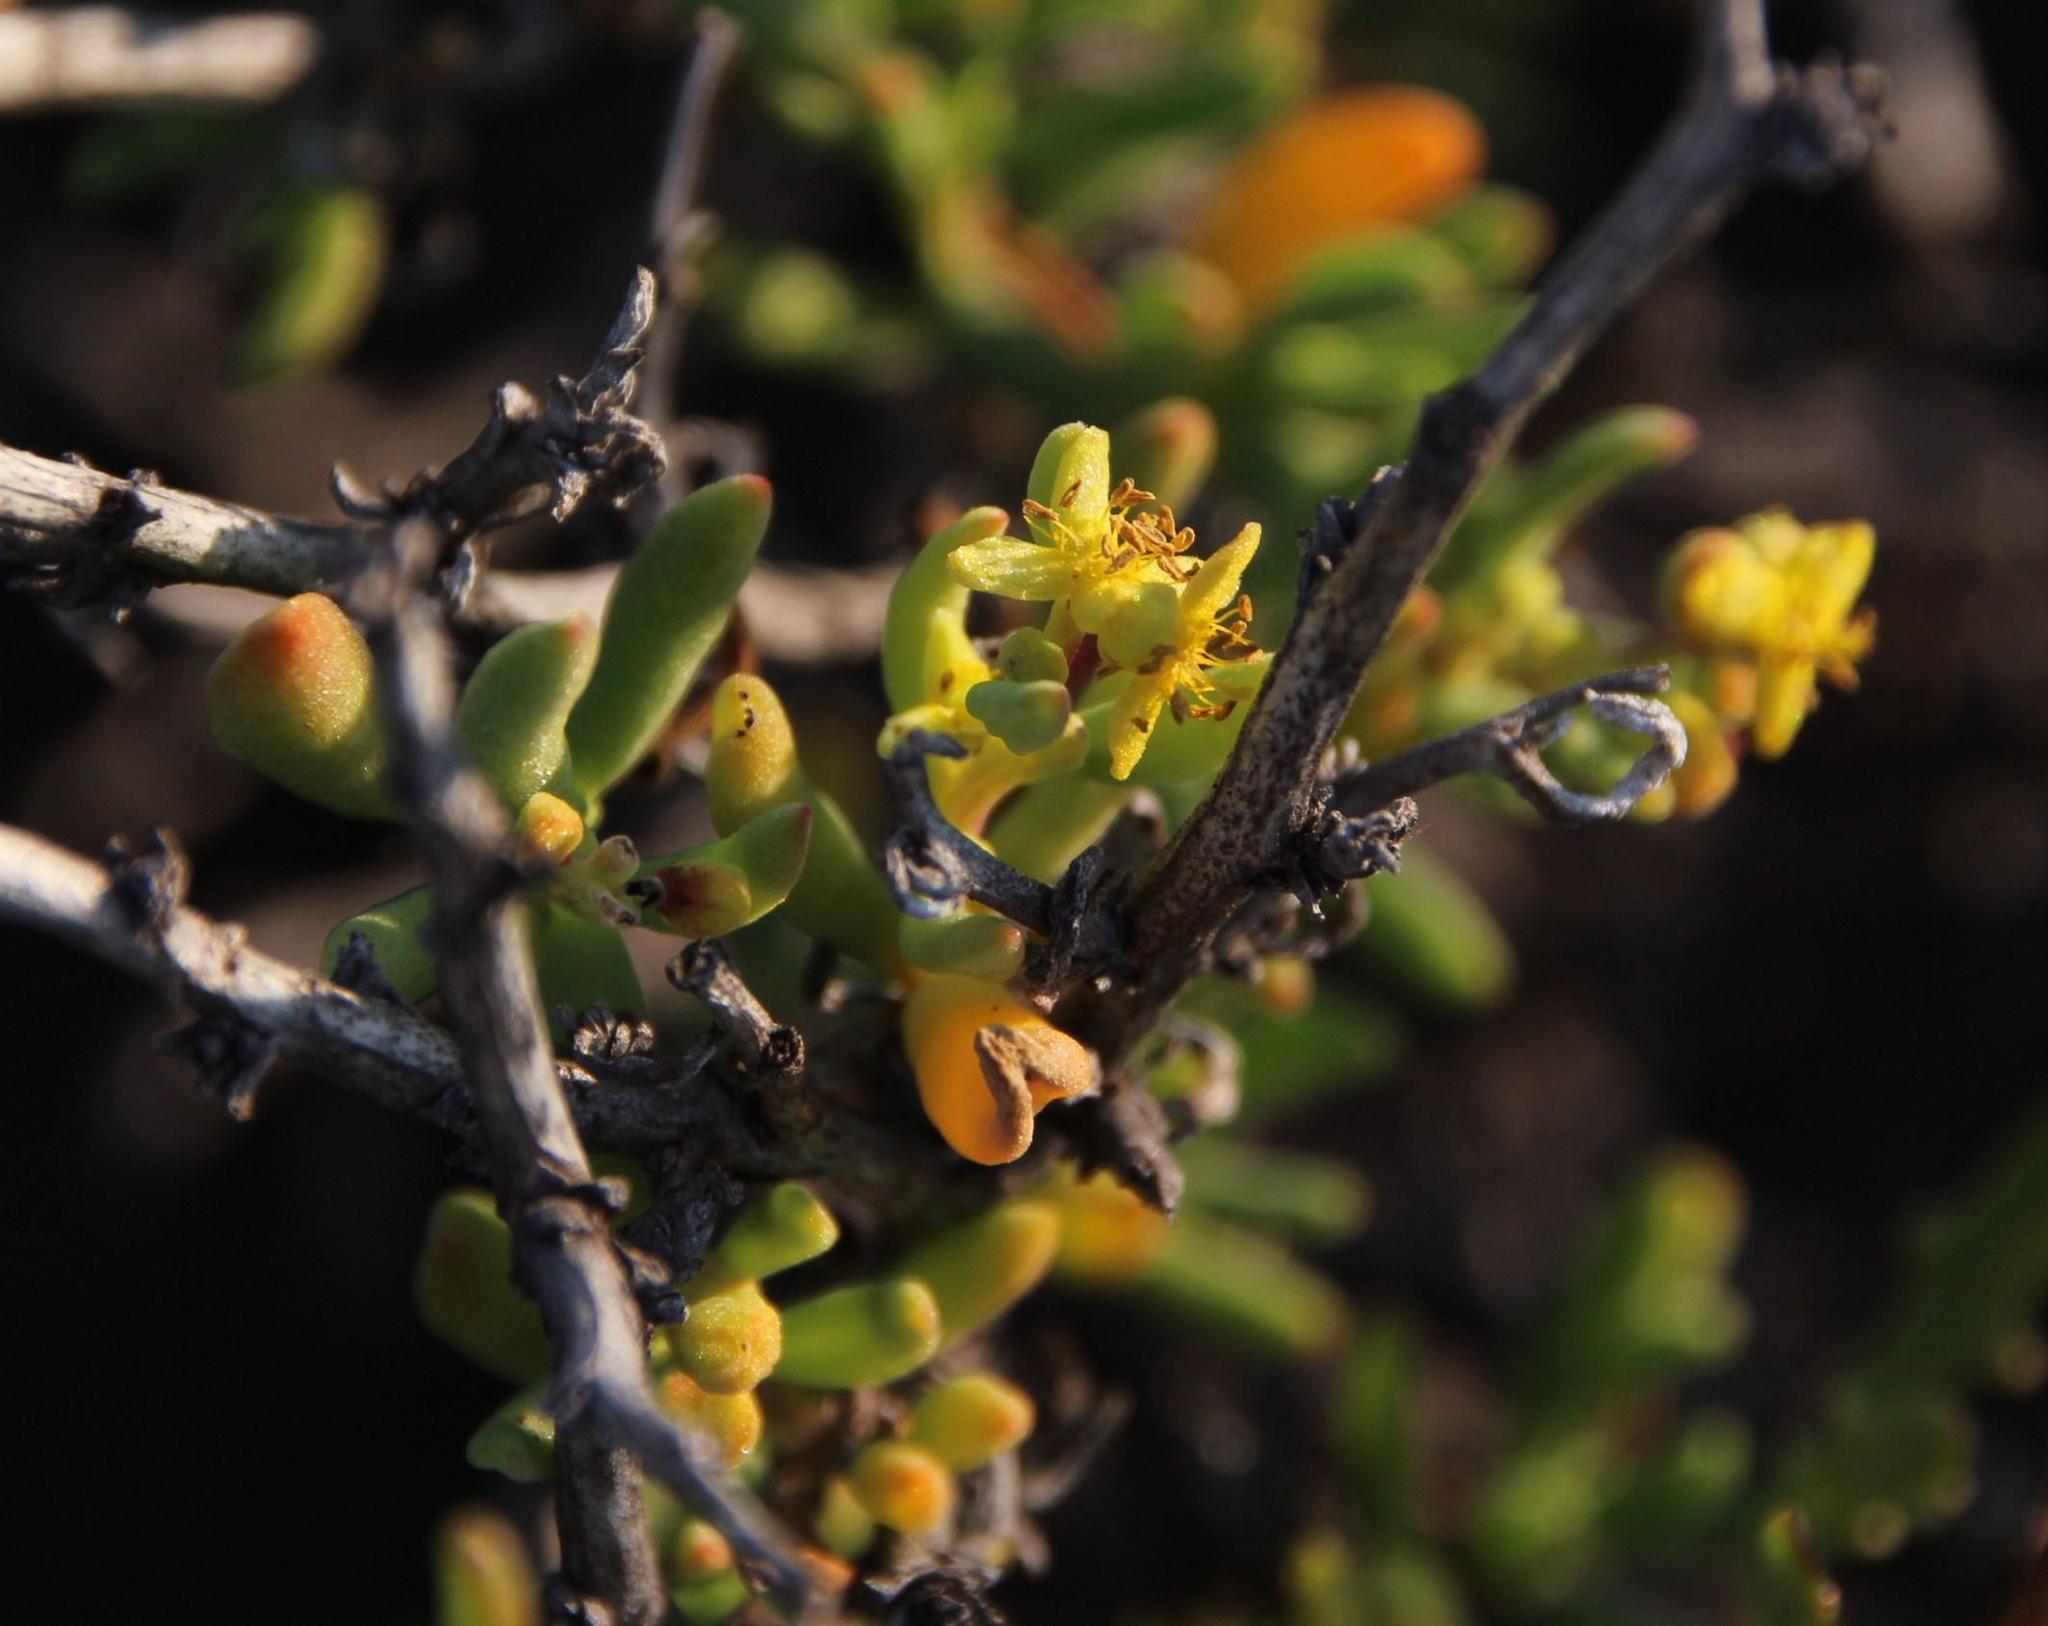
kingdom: Plantae
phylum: Tracheophyta
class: Magnoliopsida
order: Caryophyllales
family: Aizoaceae
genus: Tetragonia
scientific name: Tetragonia sarcophylla
